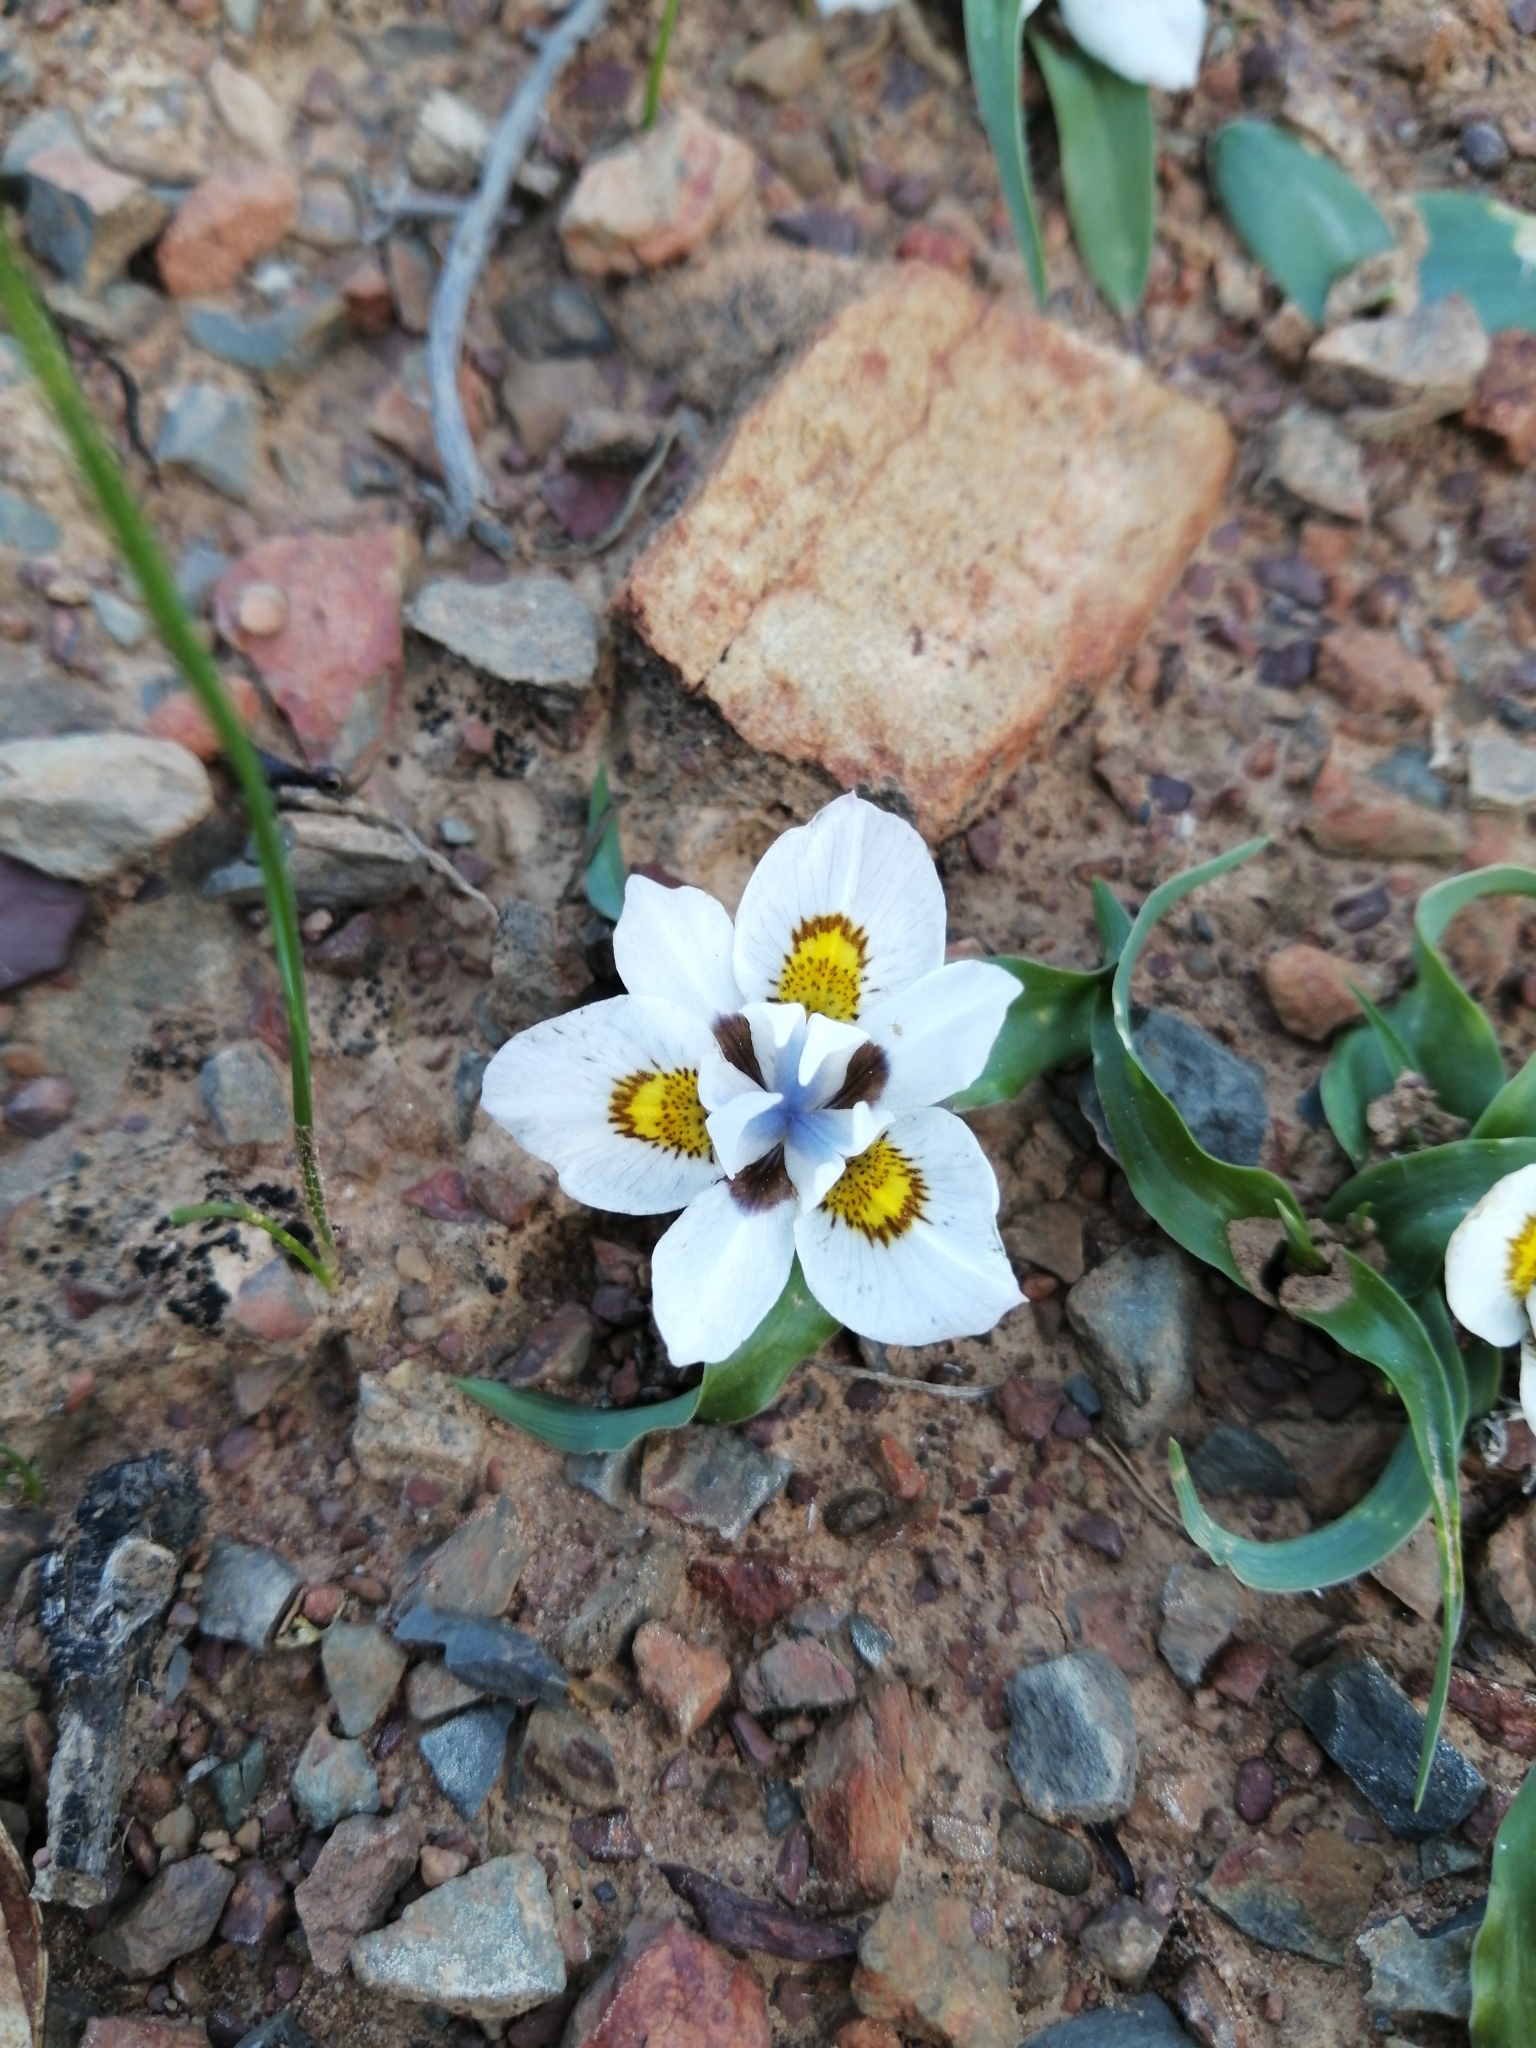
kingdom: Plantae
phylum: Tracheophyta
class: Liliopsida
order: Asparagales
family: Iridaceae
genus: Moraea
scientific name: Moraea falcifolia
